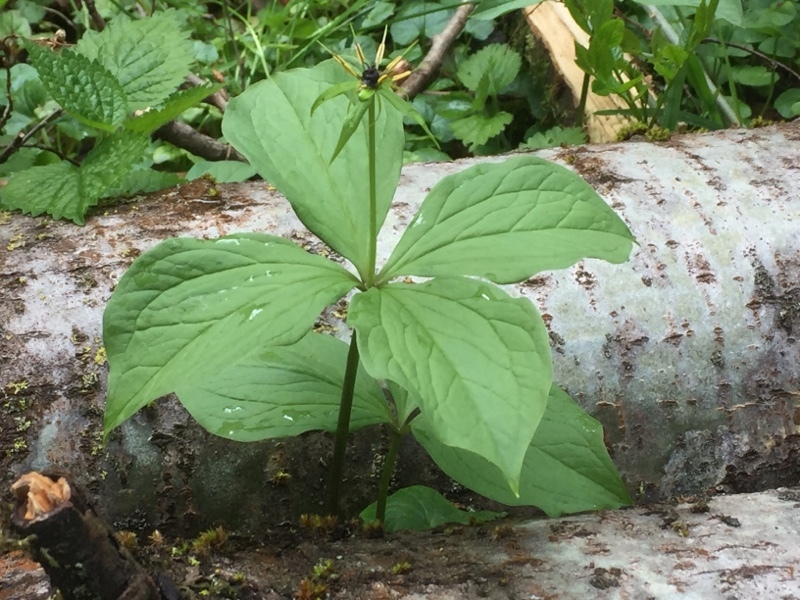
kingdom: Plantae
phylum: Tracheophyta
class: Liliopsida
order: Liliales
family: Melanthiaceae
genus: Paris
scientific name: Paris quadrifolia
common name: Herb-paris
